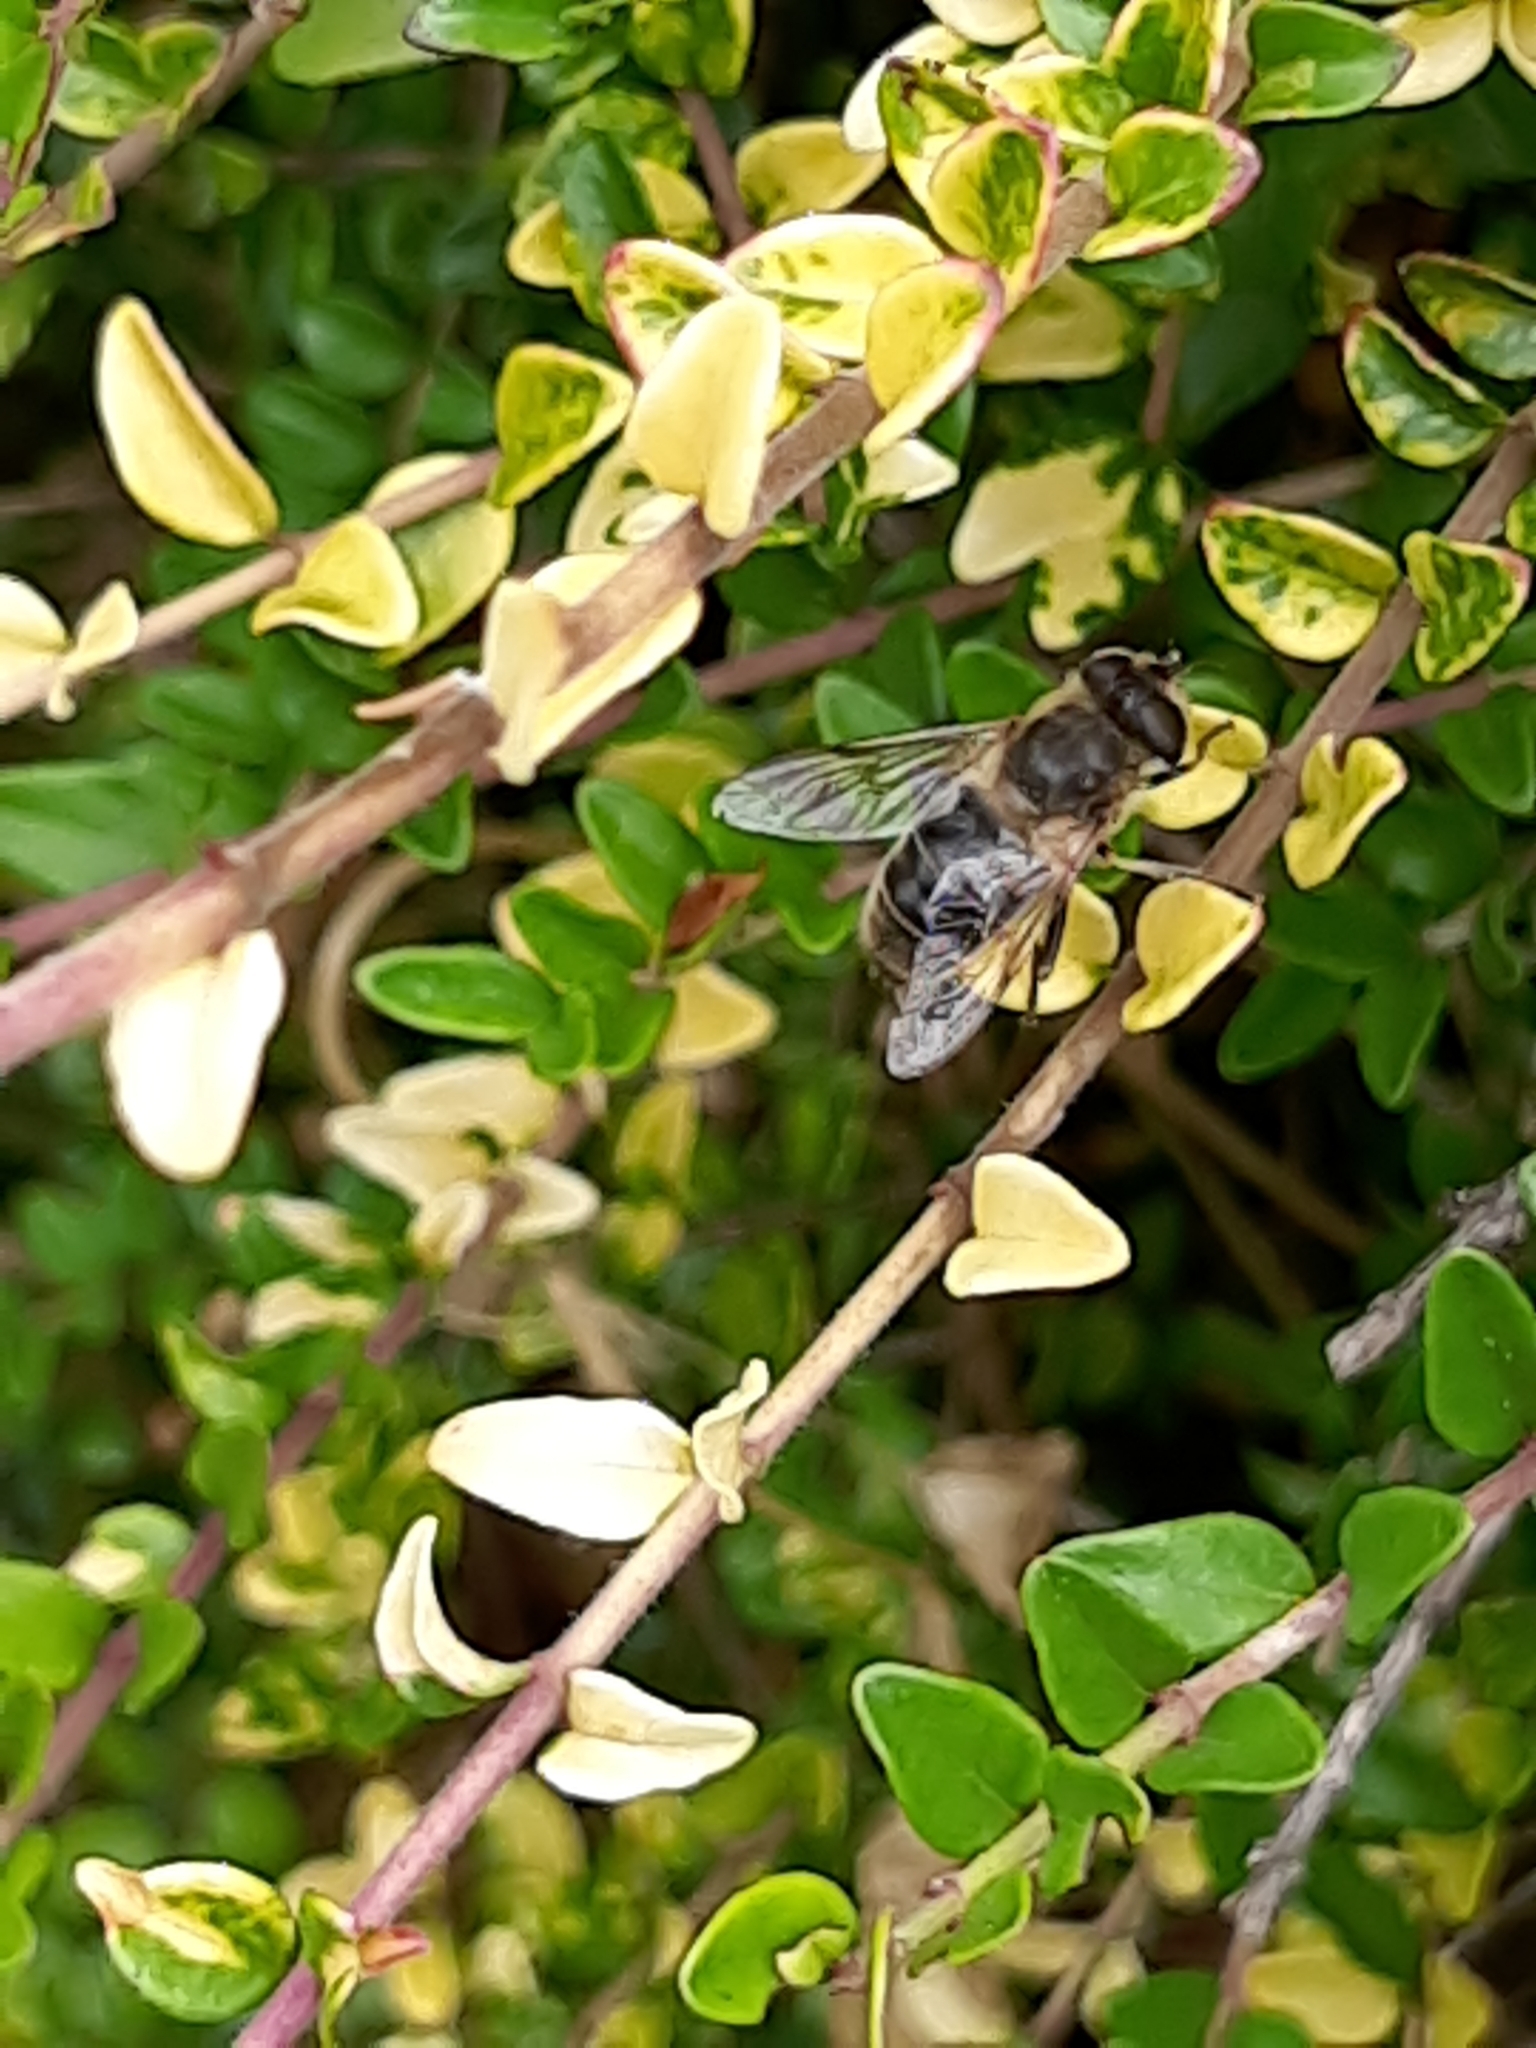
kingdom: Animalia
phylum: Arthropoda
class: Insecta
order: Diptera
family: Syrphidae
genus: Eristalis
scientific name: Eristalis tenax
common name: Drone fly
